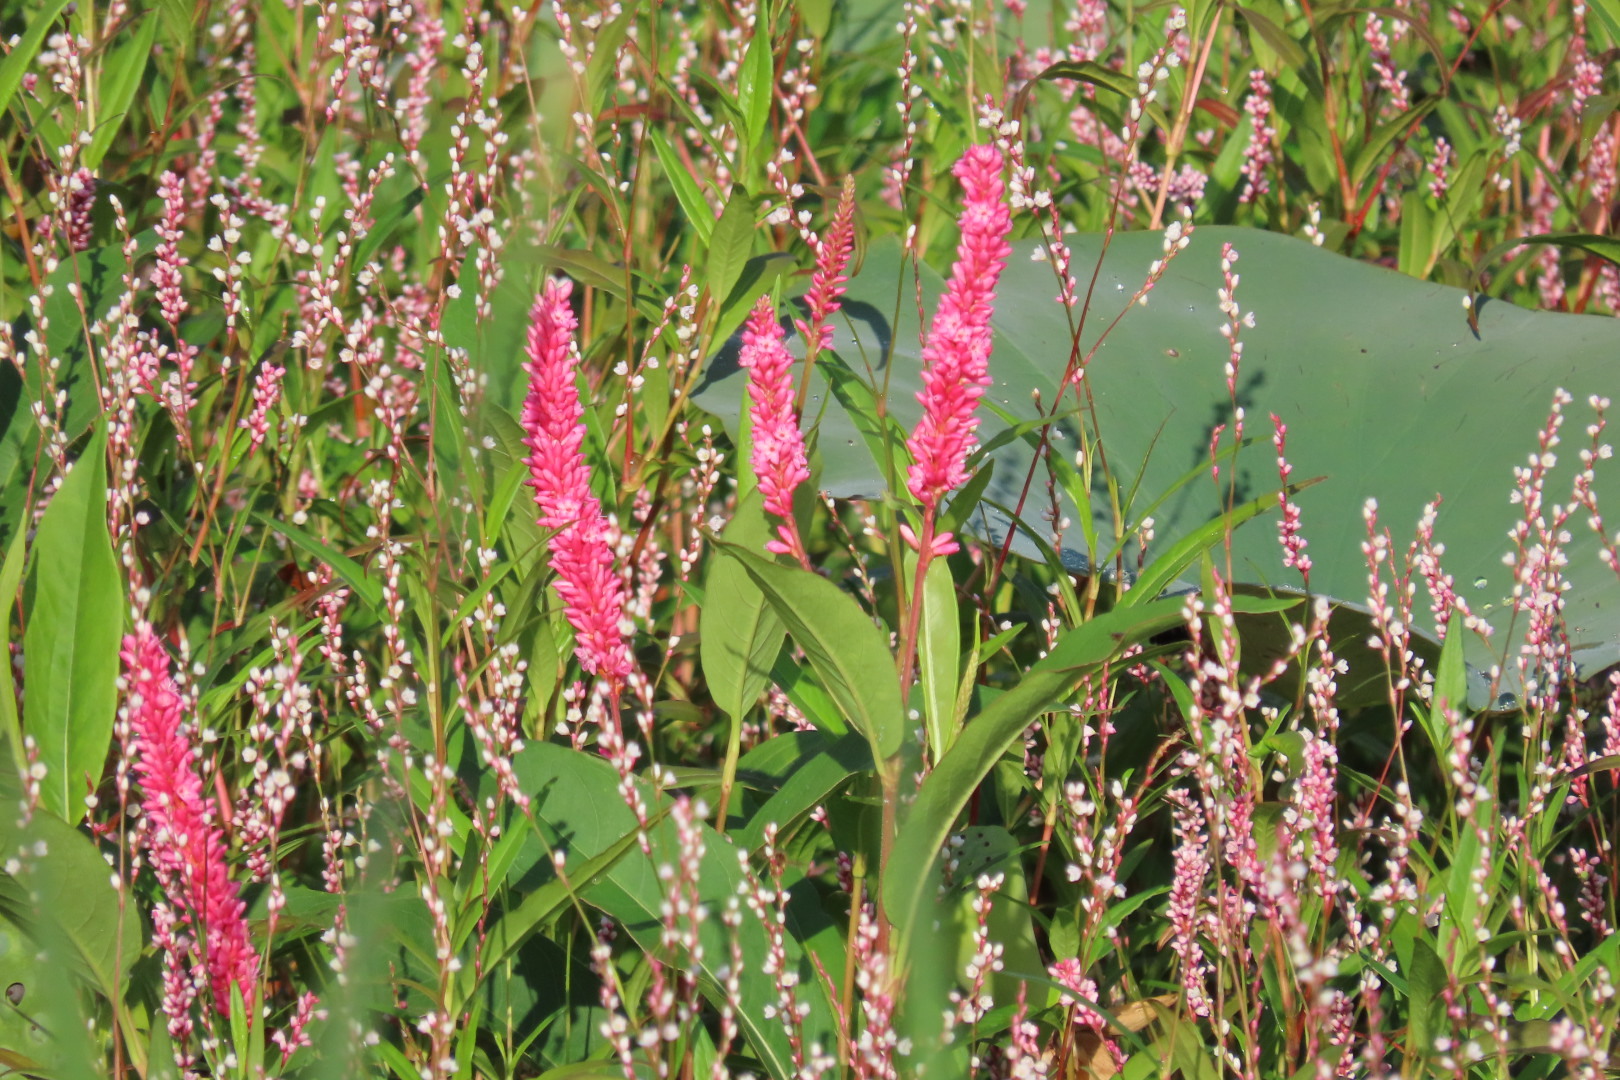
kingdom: Plantae
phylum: Tracheophyta
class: Magnoliopsida
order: Caryophyllales
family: Polygonaceae
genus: Persicaria
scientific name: Persicaria amphibia
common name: Amphibious bistort
